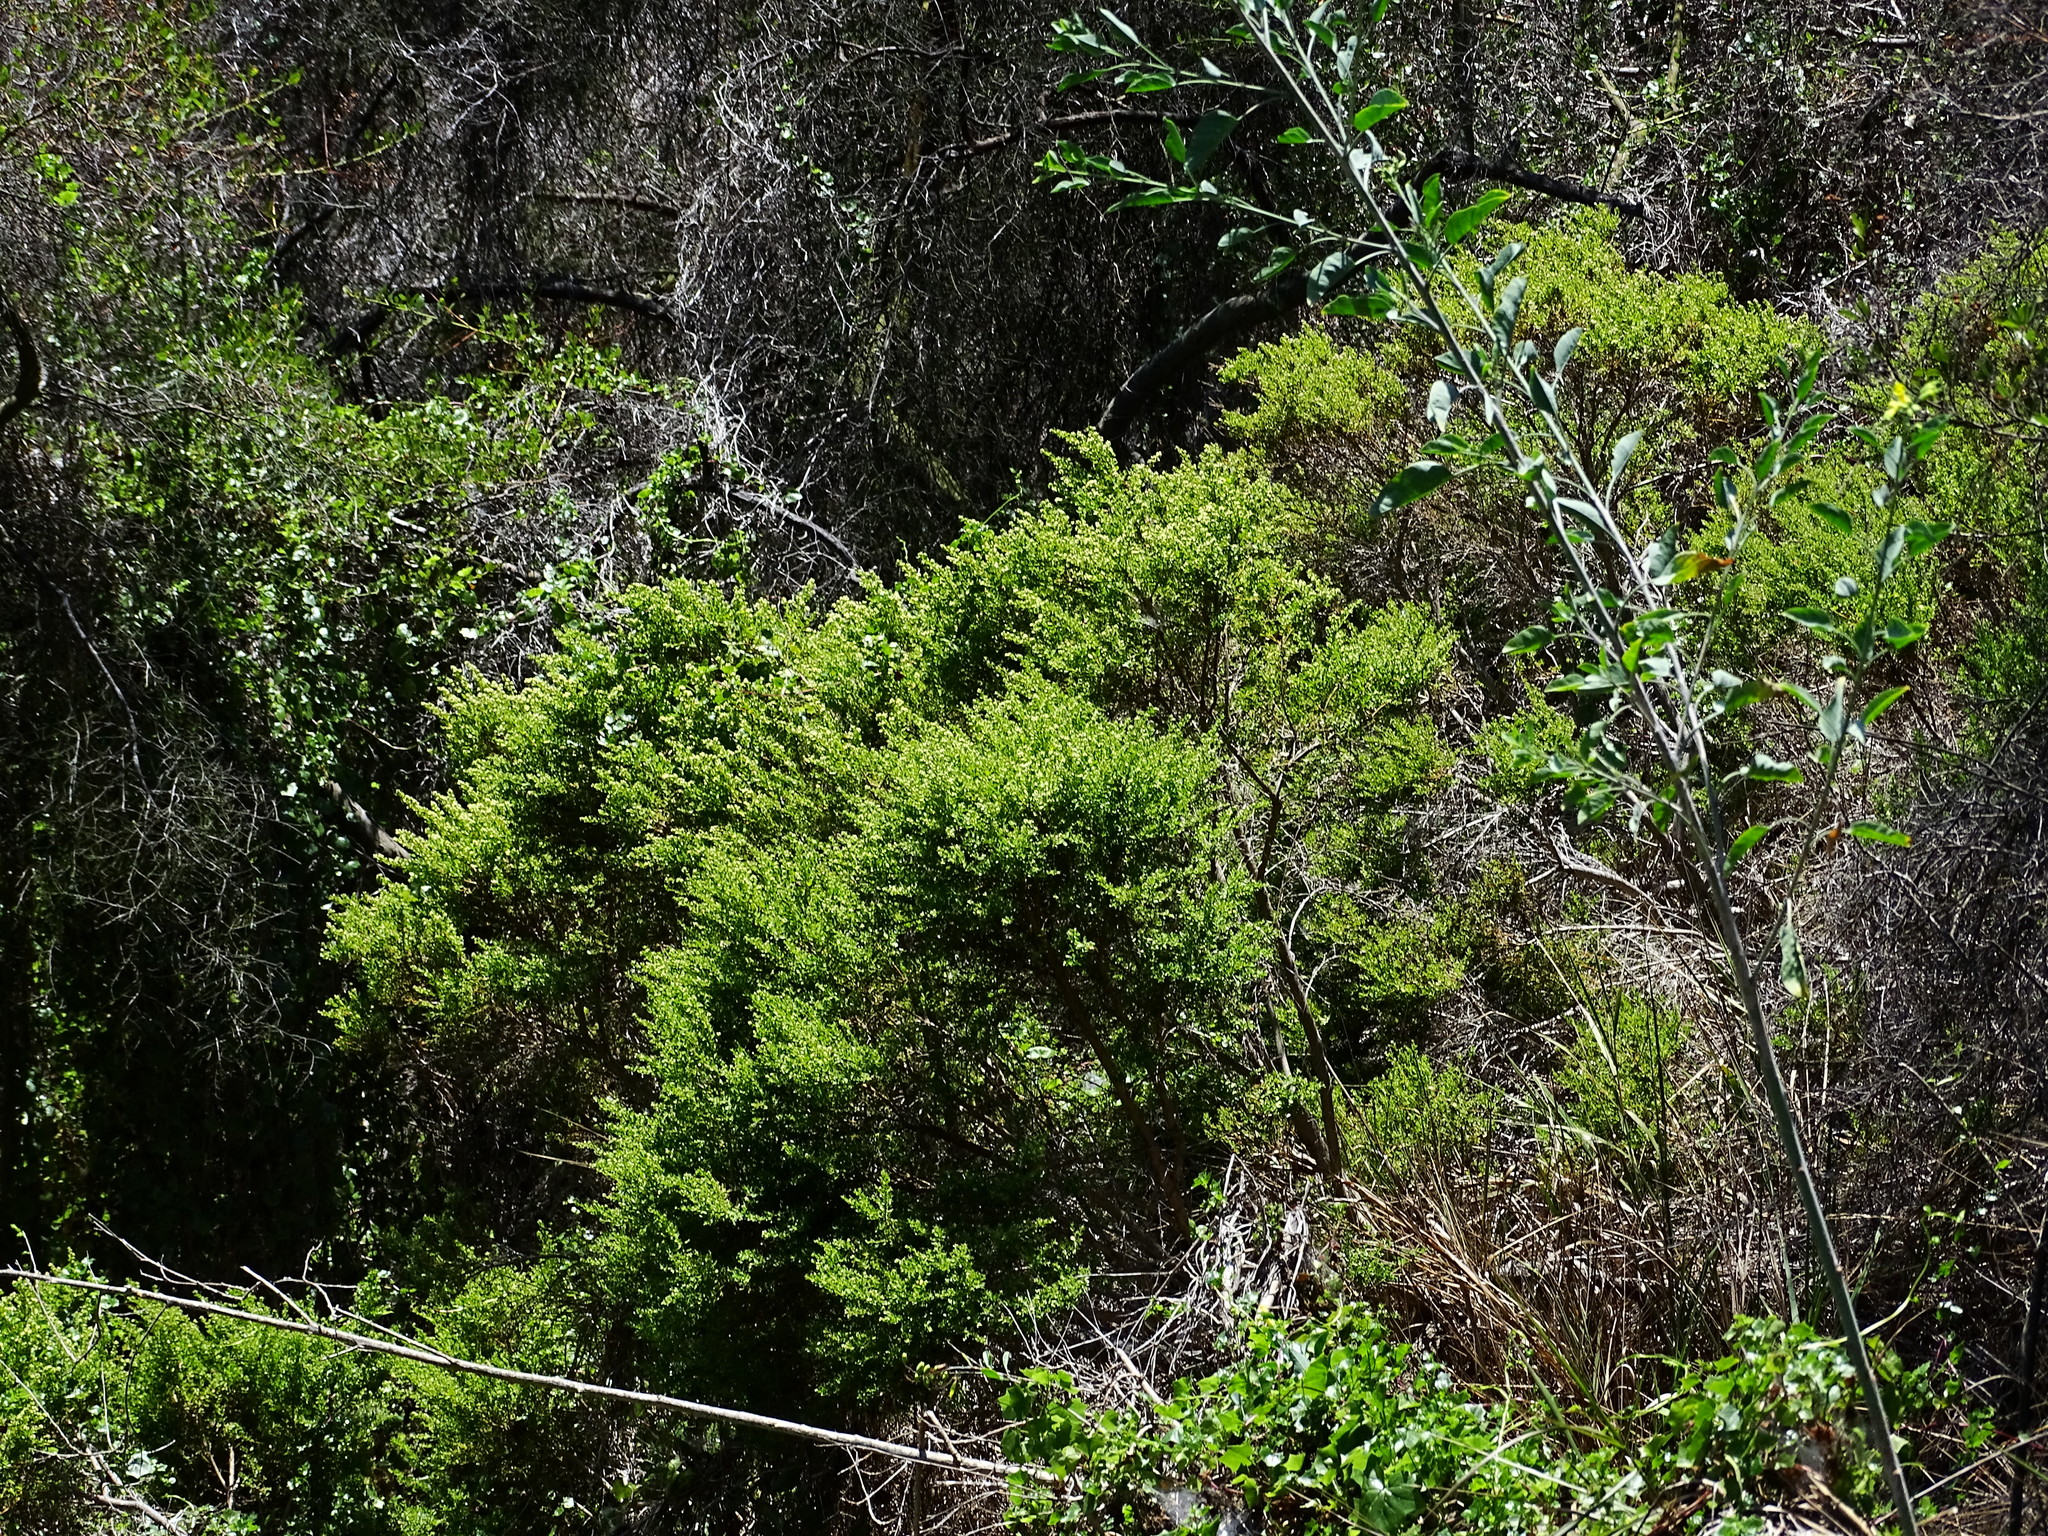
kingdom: Plantae
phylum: Tracheophyta
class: Magnoliopsida
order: Asterales
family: Asteraceae
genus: Baccharis
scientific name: Baccharis pilularis
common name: Coyotebrush
